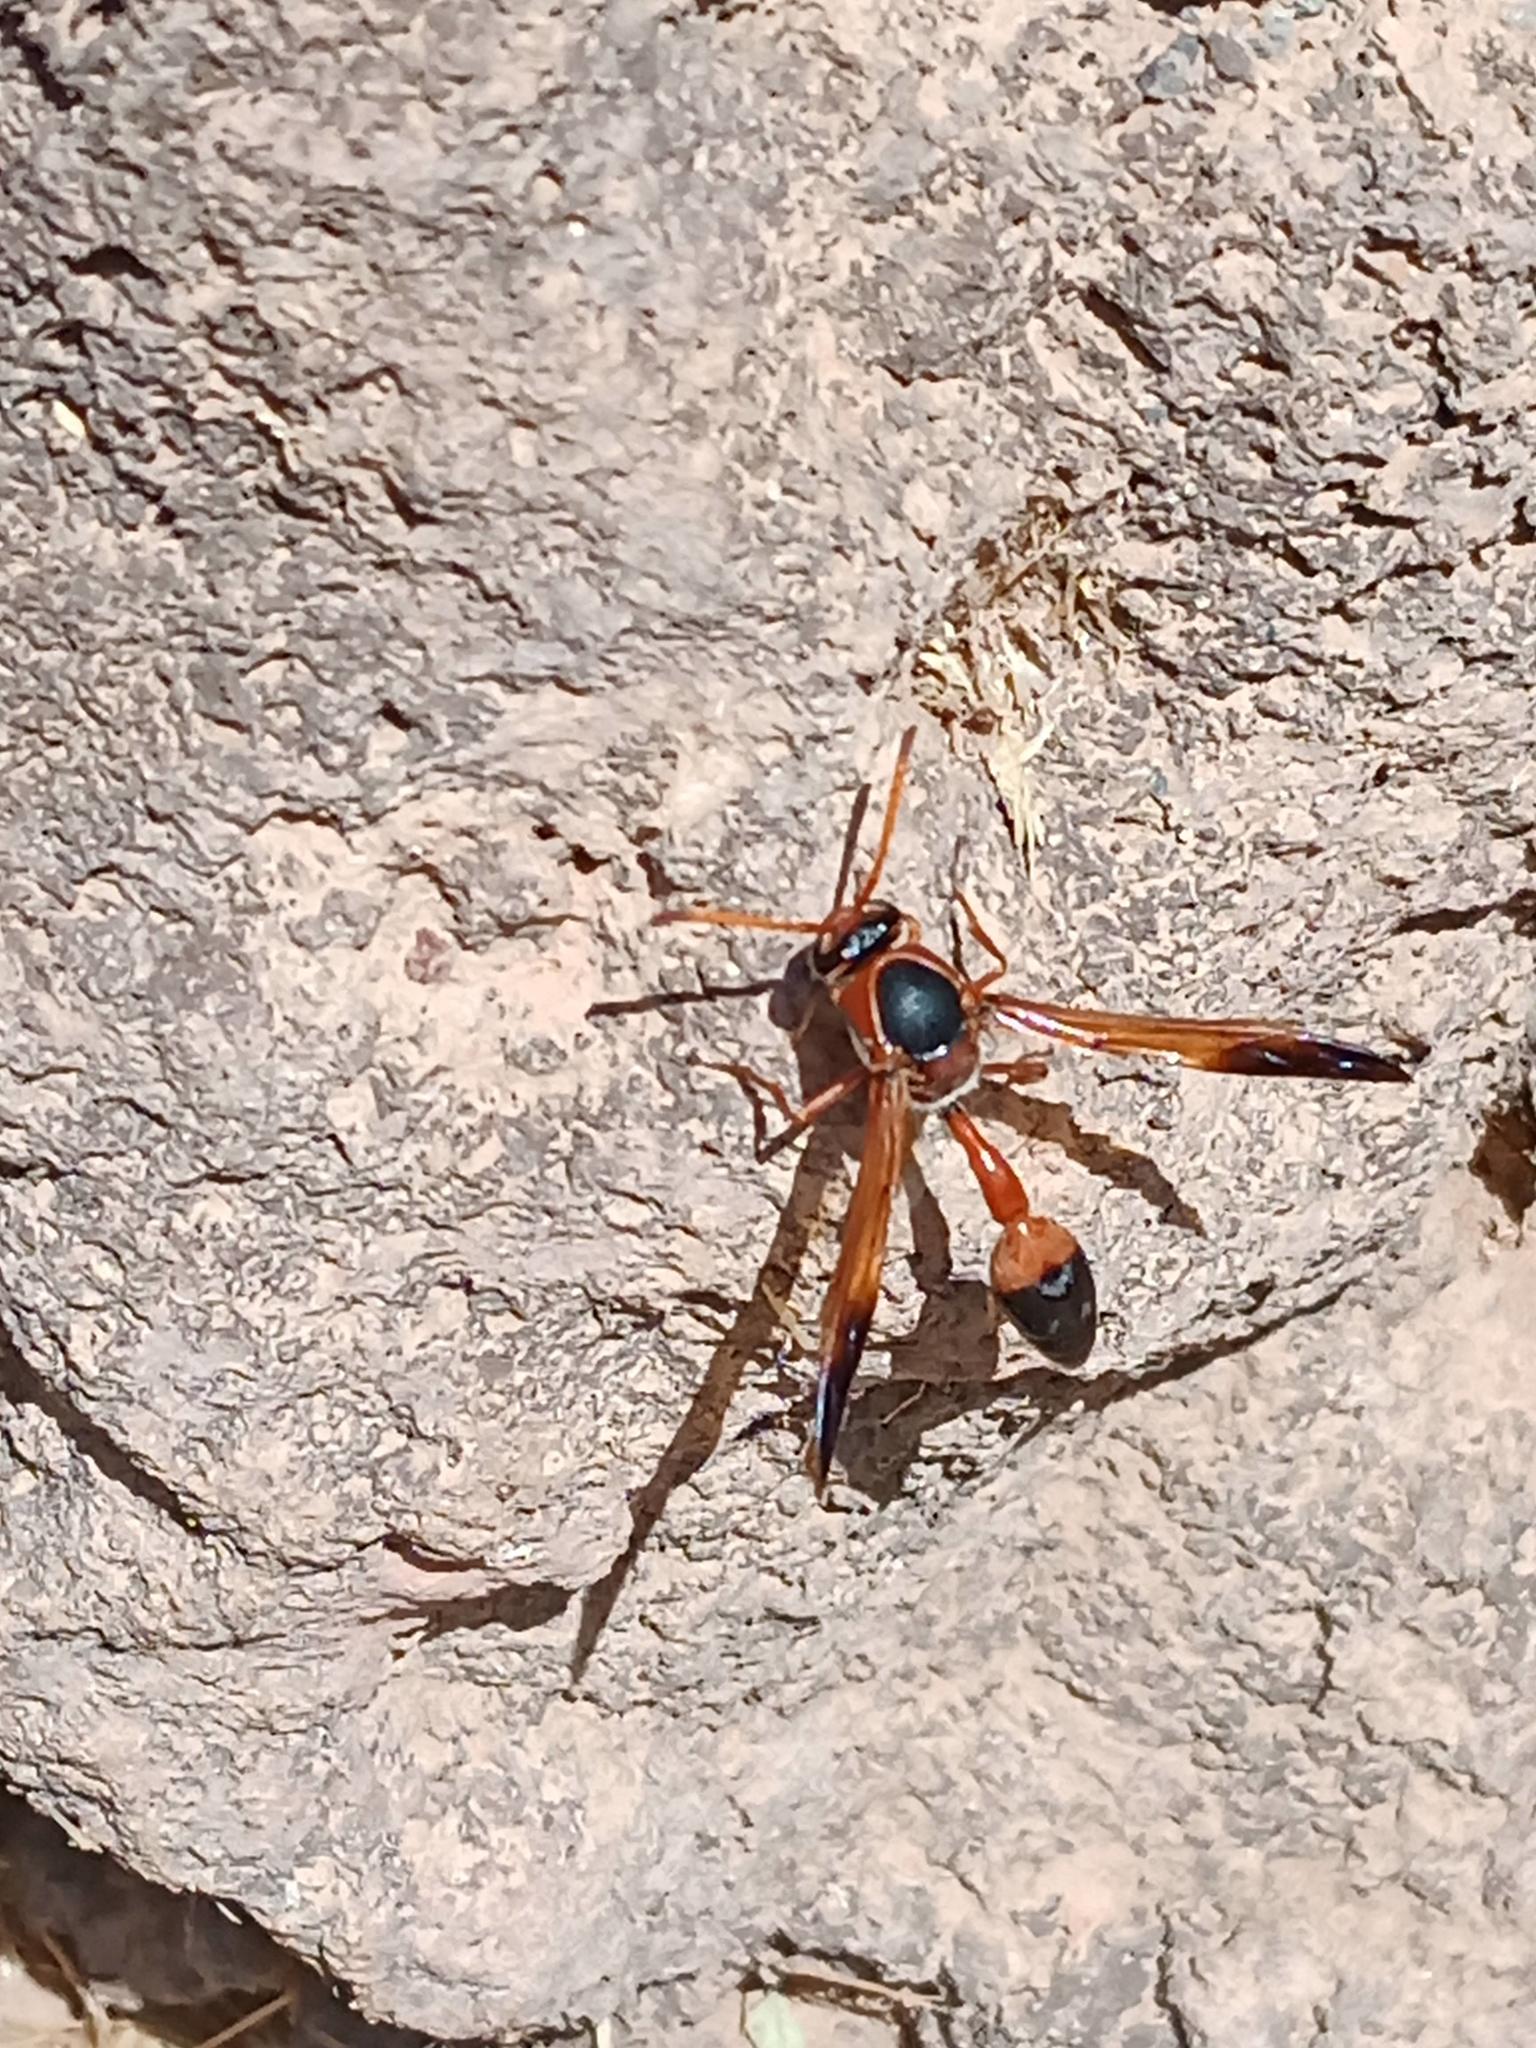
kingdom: Animalia
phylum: Arthropoda
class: Insecta
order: Hymenoptera
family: Eumenidae
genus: Delta
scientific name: Delta dimidiatipenne
